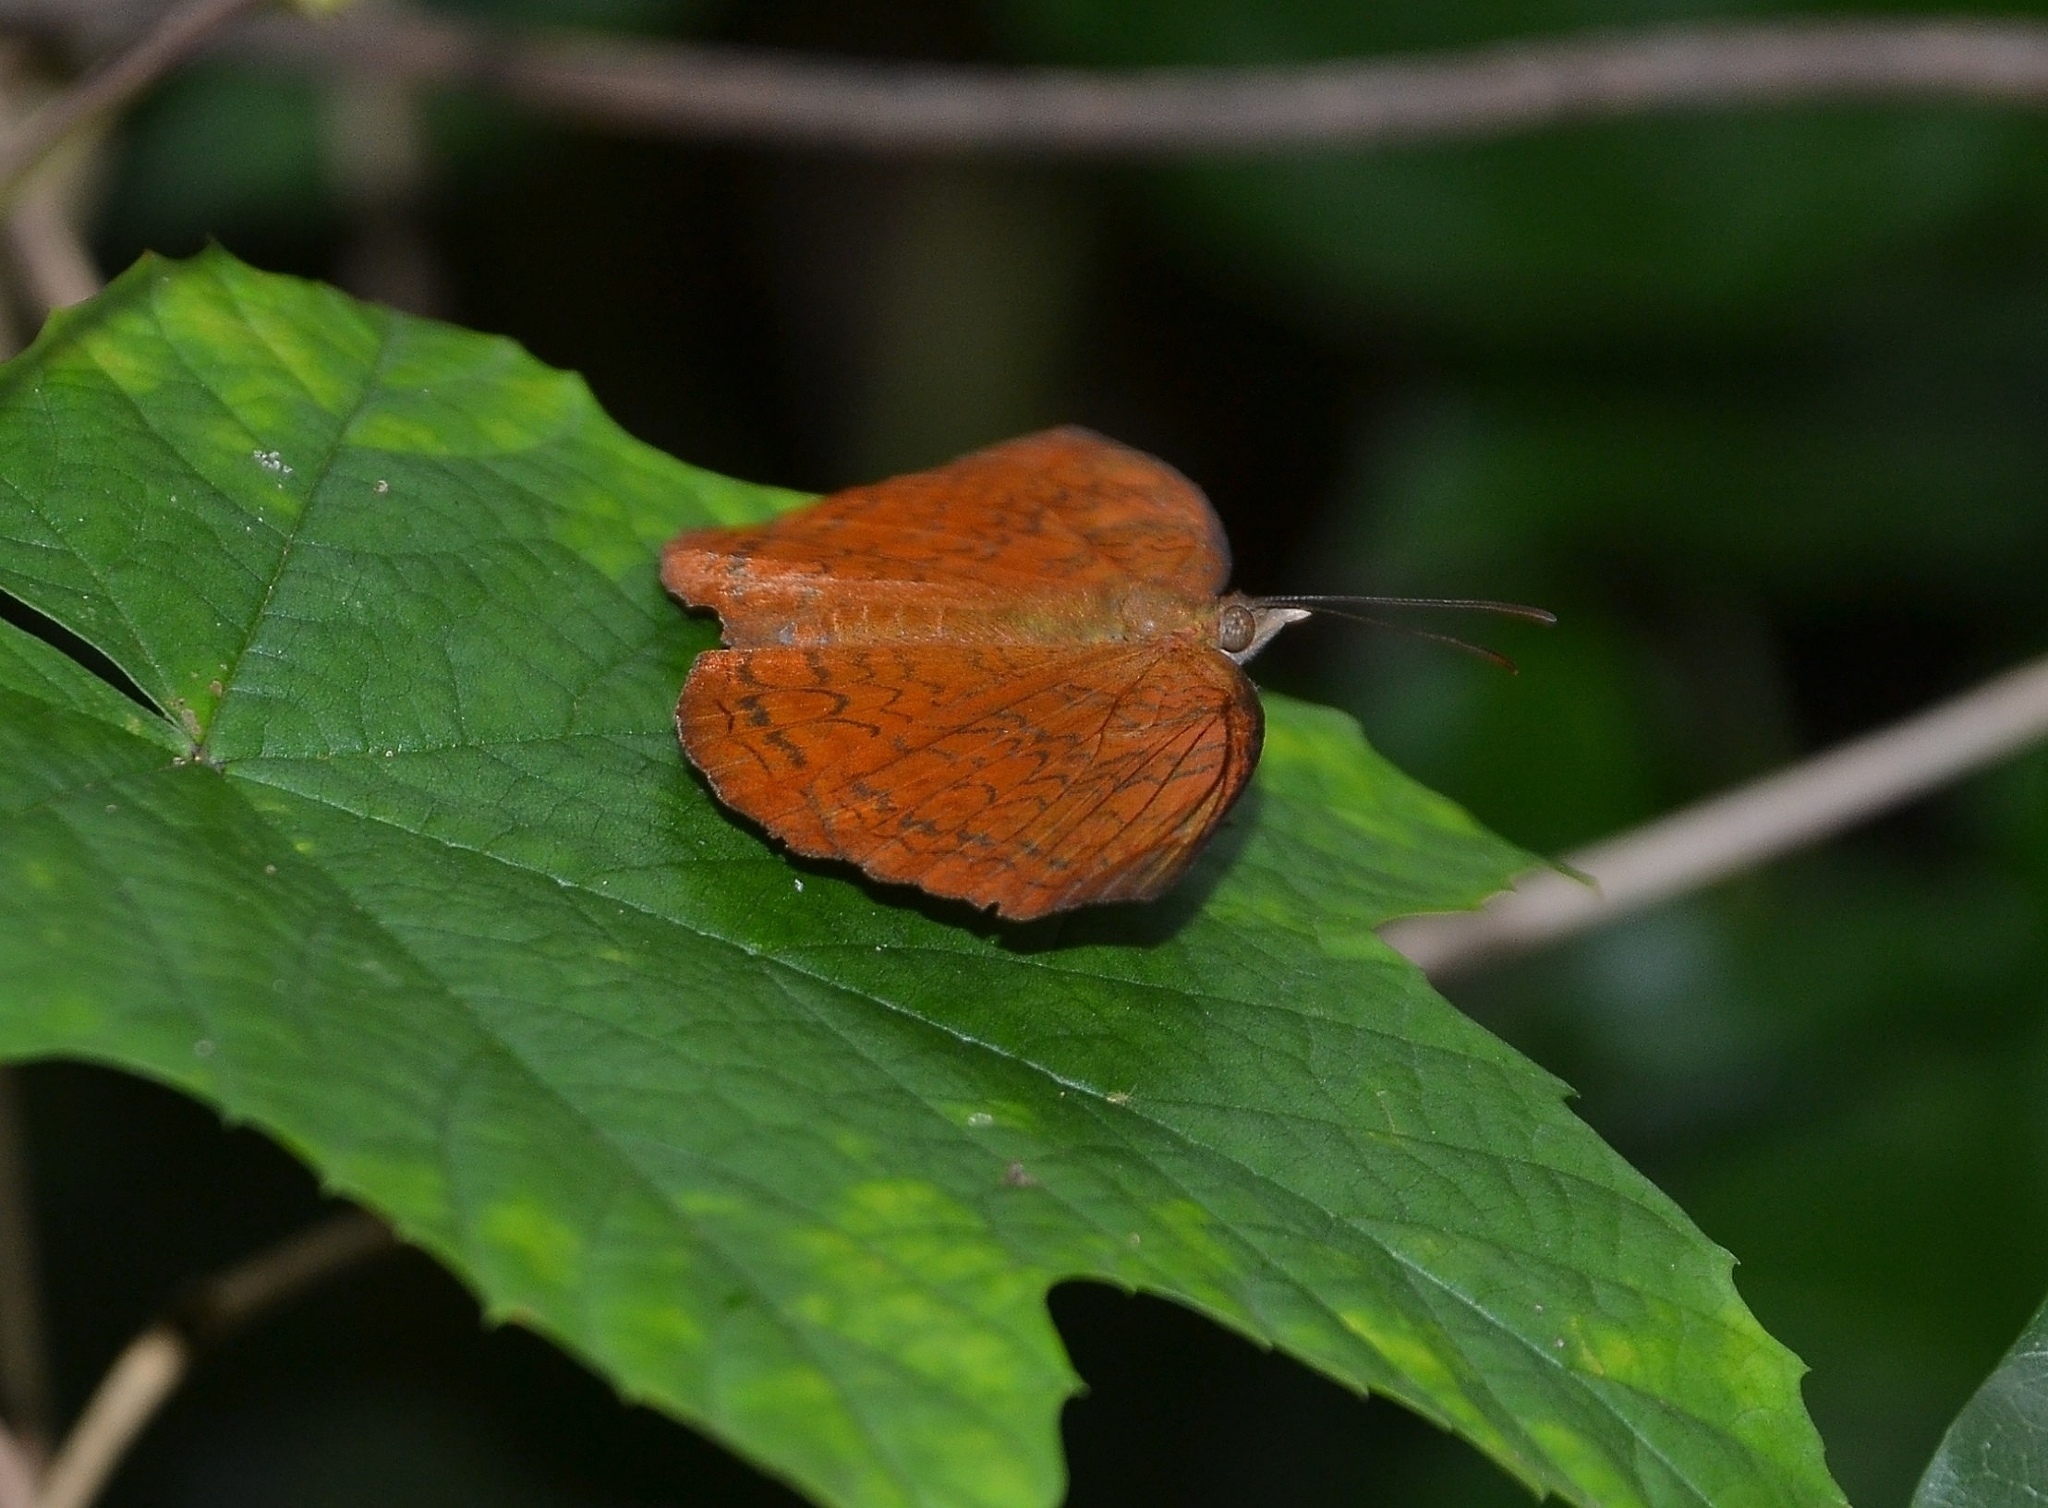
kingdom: Animalia
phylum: Arthropoda
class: Insecta
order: Lepidoptera
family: Nymphalidae
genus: Ariadne
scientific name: Ariadne merione
